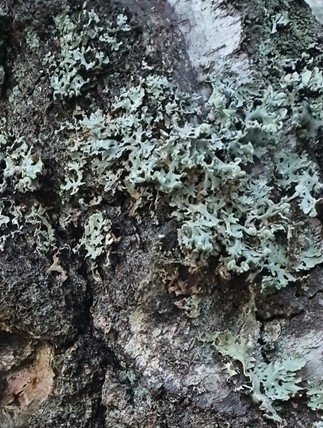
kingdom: Fungi
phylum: Ascomycota
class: Lecanoromycetes
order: Lecanorales
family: Parmeliaceae
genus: Hypogymnia
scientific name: Hypogymnia physodes
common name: Dark crottle
